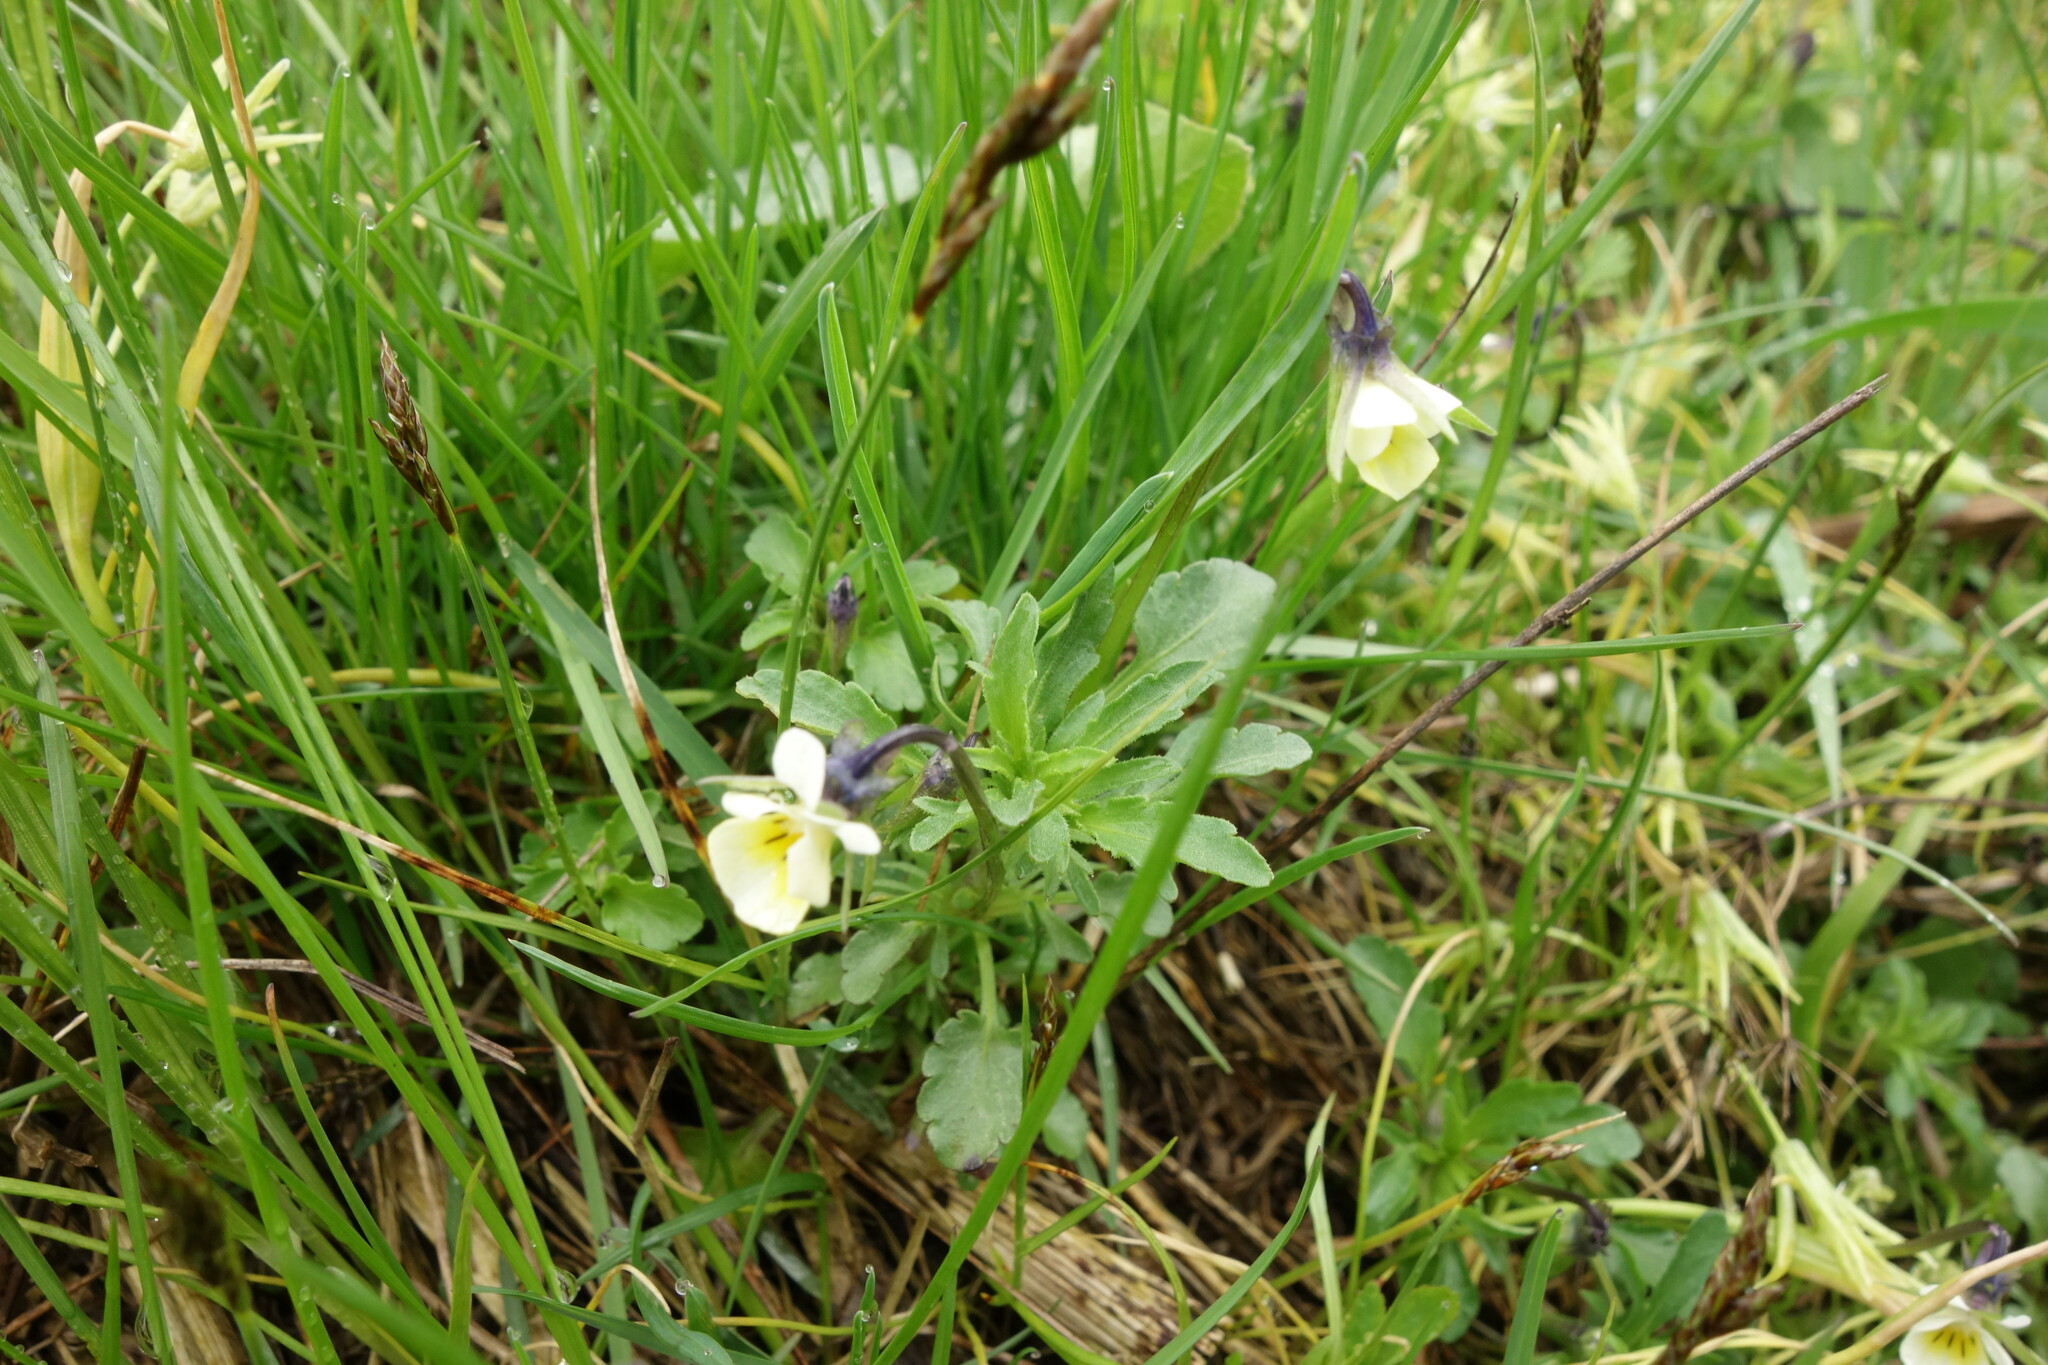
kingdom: Plantae
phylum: Tracheophyta
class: Magnoliopsida
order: Malpighiales
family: Violaceae
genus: Viola
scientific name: Viola arvensis
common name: Field pansy
